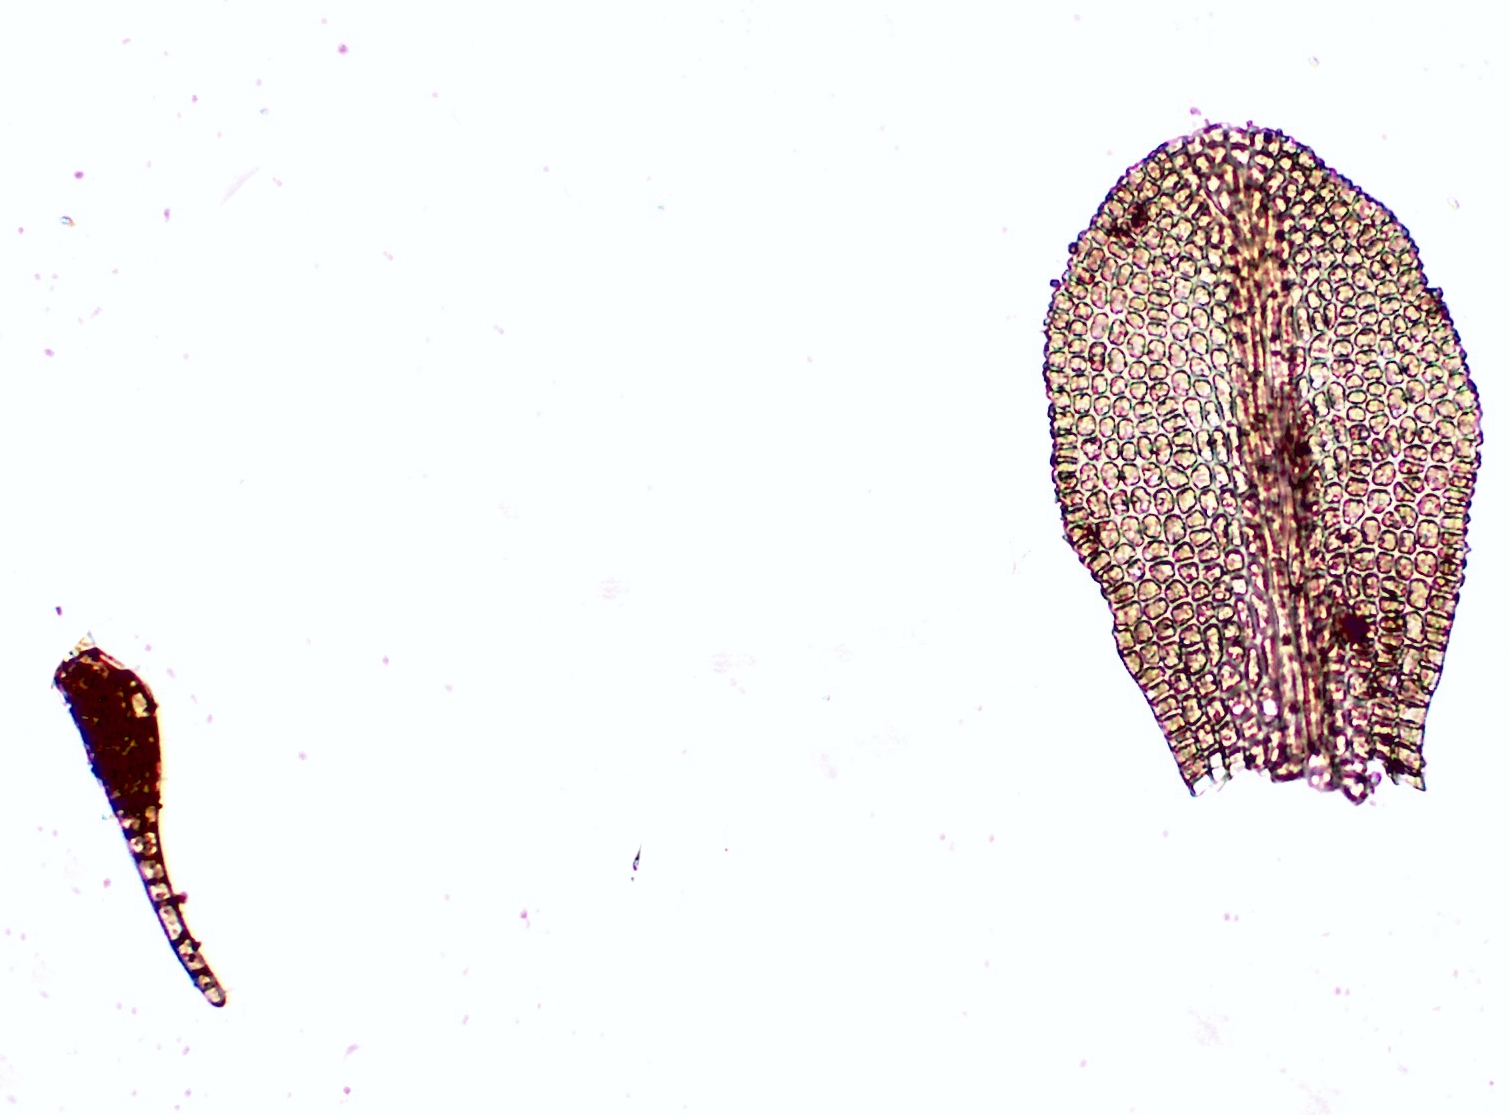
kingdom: Plantae
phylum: Bryophyta
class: Bryopsida
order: Pottiales
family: Pottiaceae
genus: Gymnostomum
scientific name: Gymnostomum viridulum
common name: Luisier's tufa-moss
